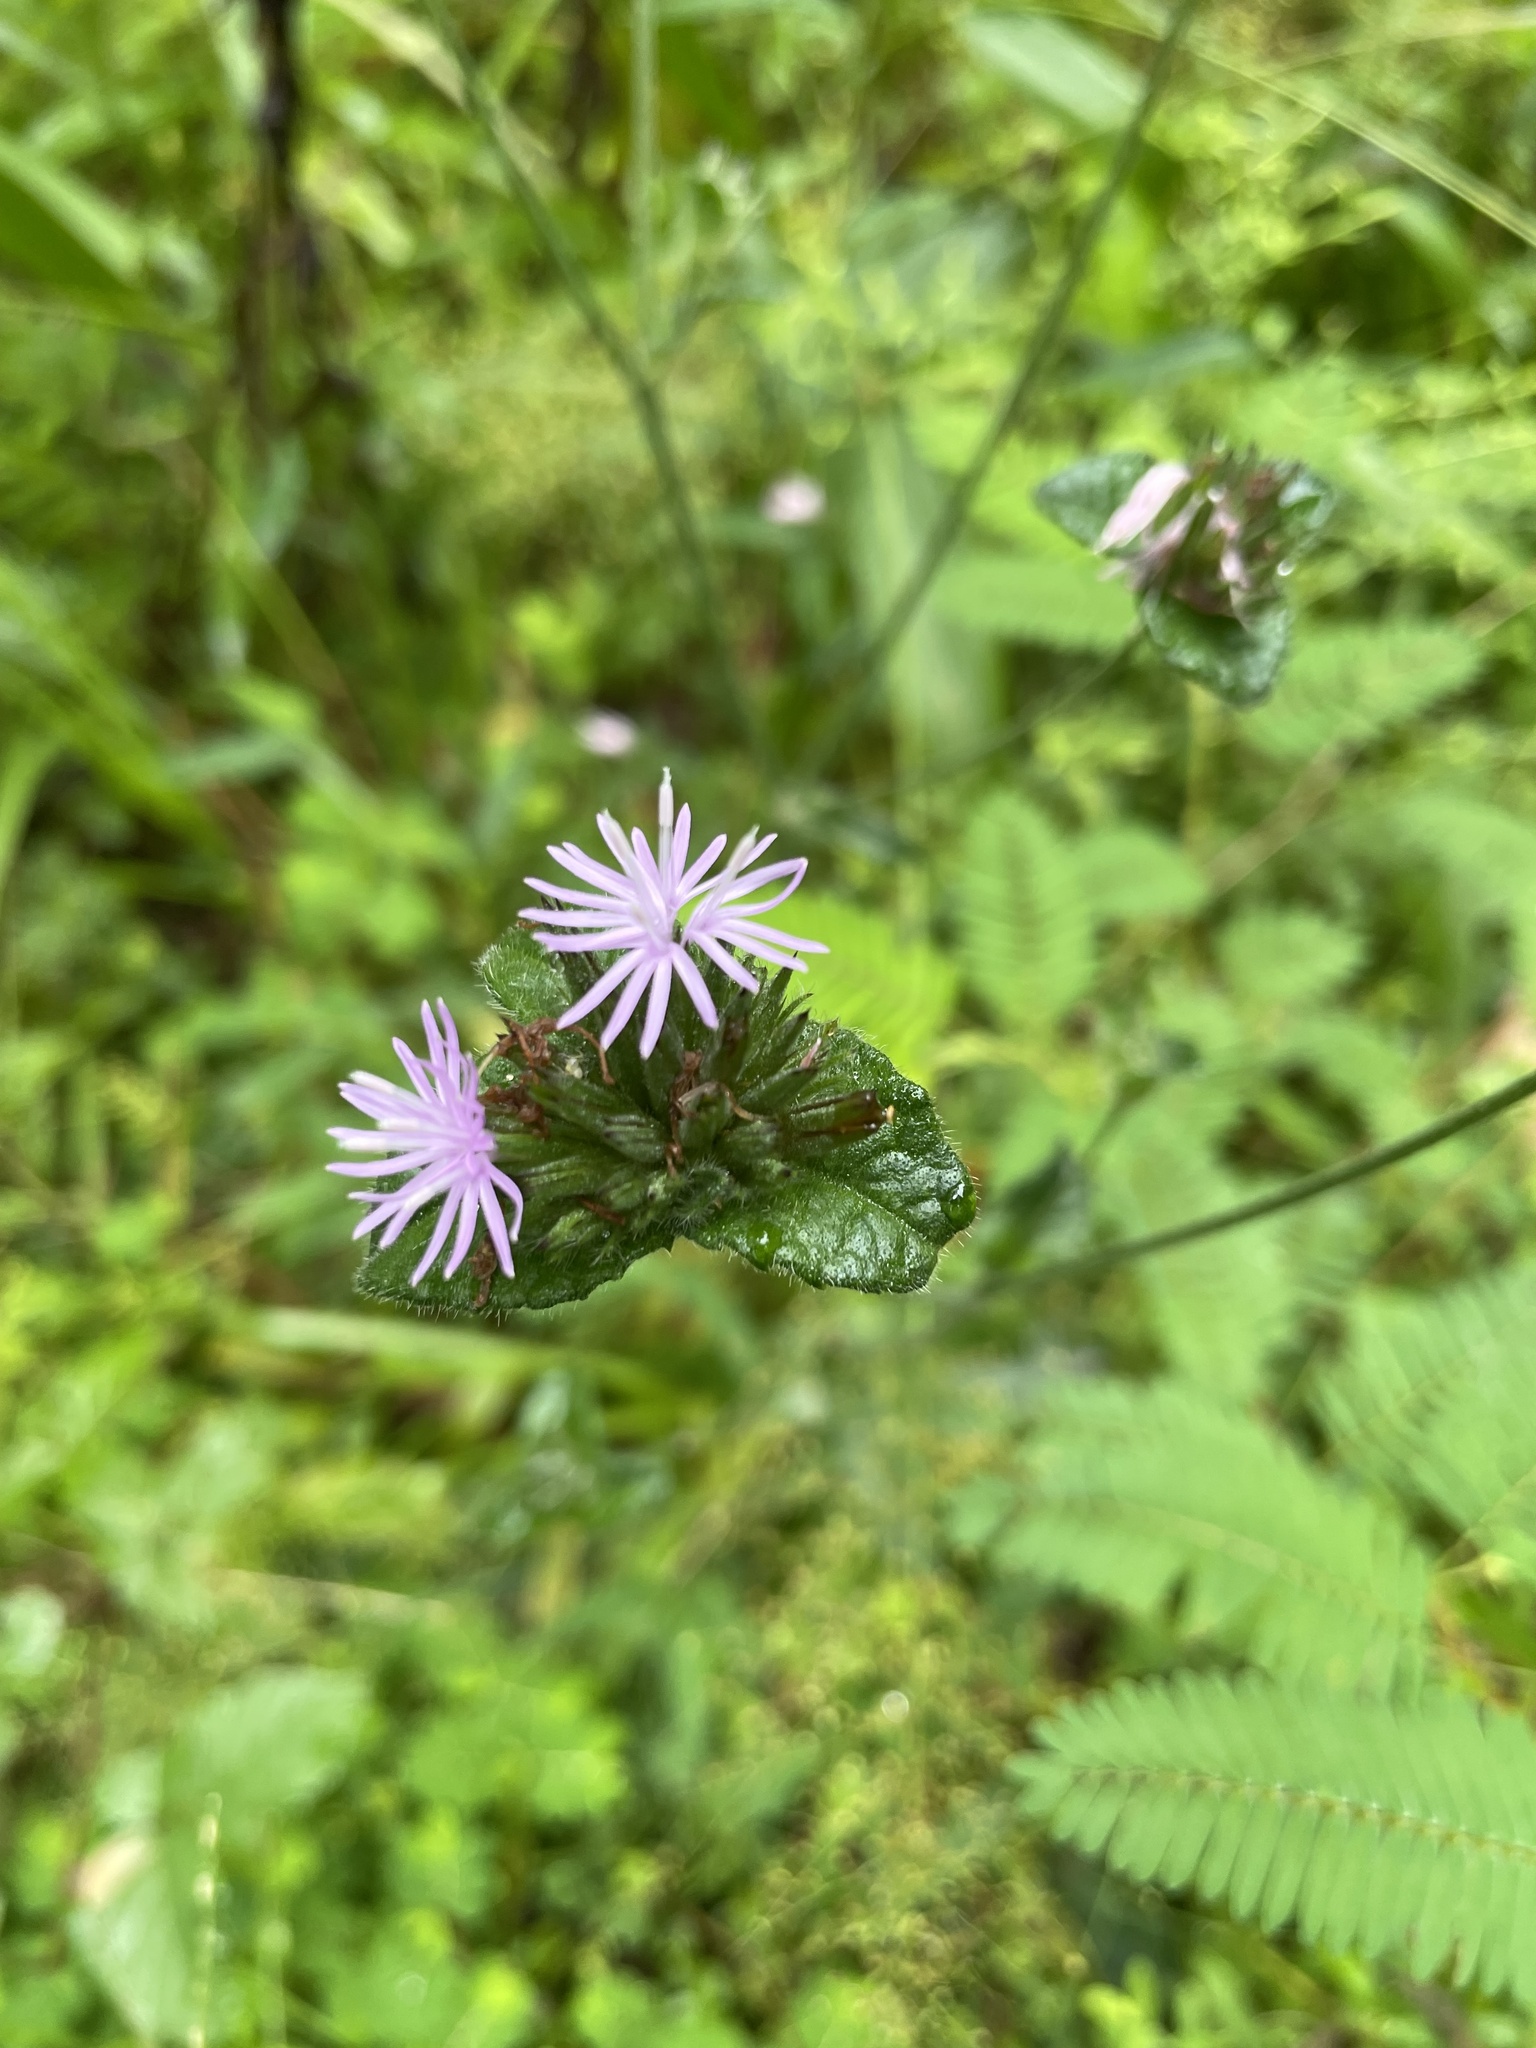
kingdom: Plantae
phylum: Tracheophyta
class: Magnoliopsida
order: Asterales
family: Asteraceae
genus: Elephantopus
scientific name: Elephantopus tomentosus
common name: Tobacco-weed
